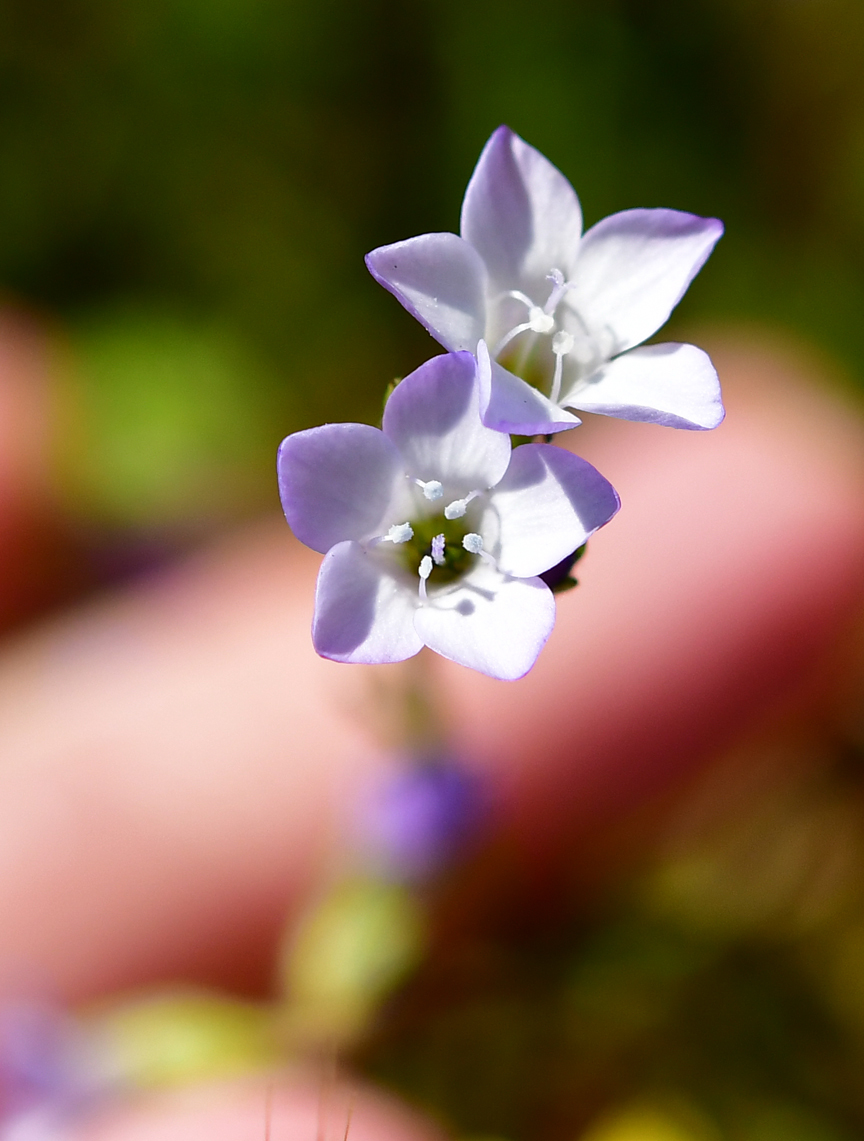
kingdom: Plantae
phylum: Tracheophyta
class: Magnoliopsida
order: Ericales
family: Polemoniaceae
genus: Gilia
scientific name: Gilia angelensis
